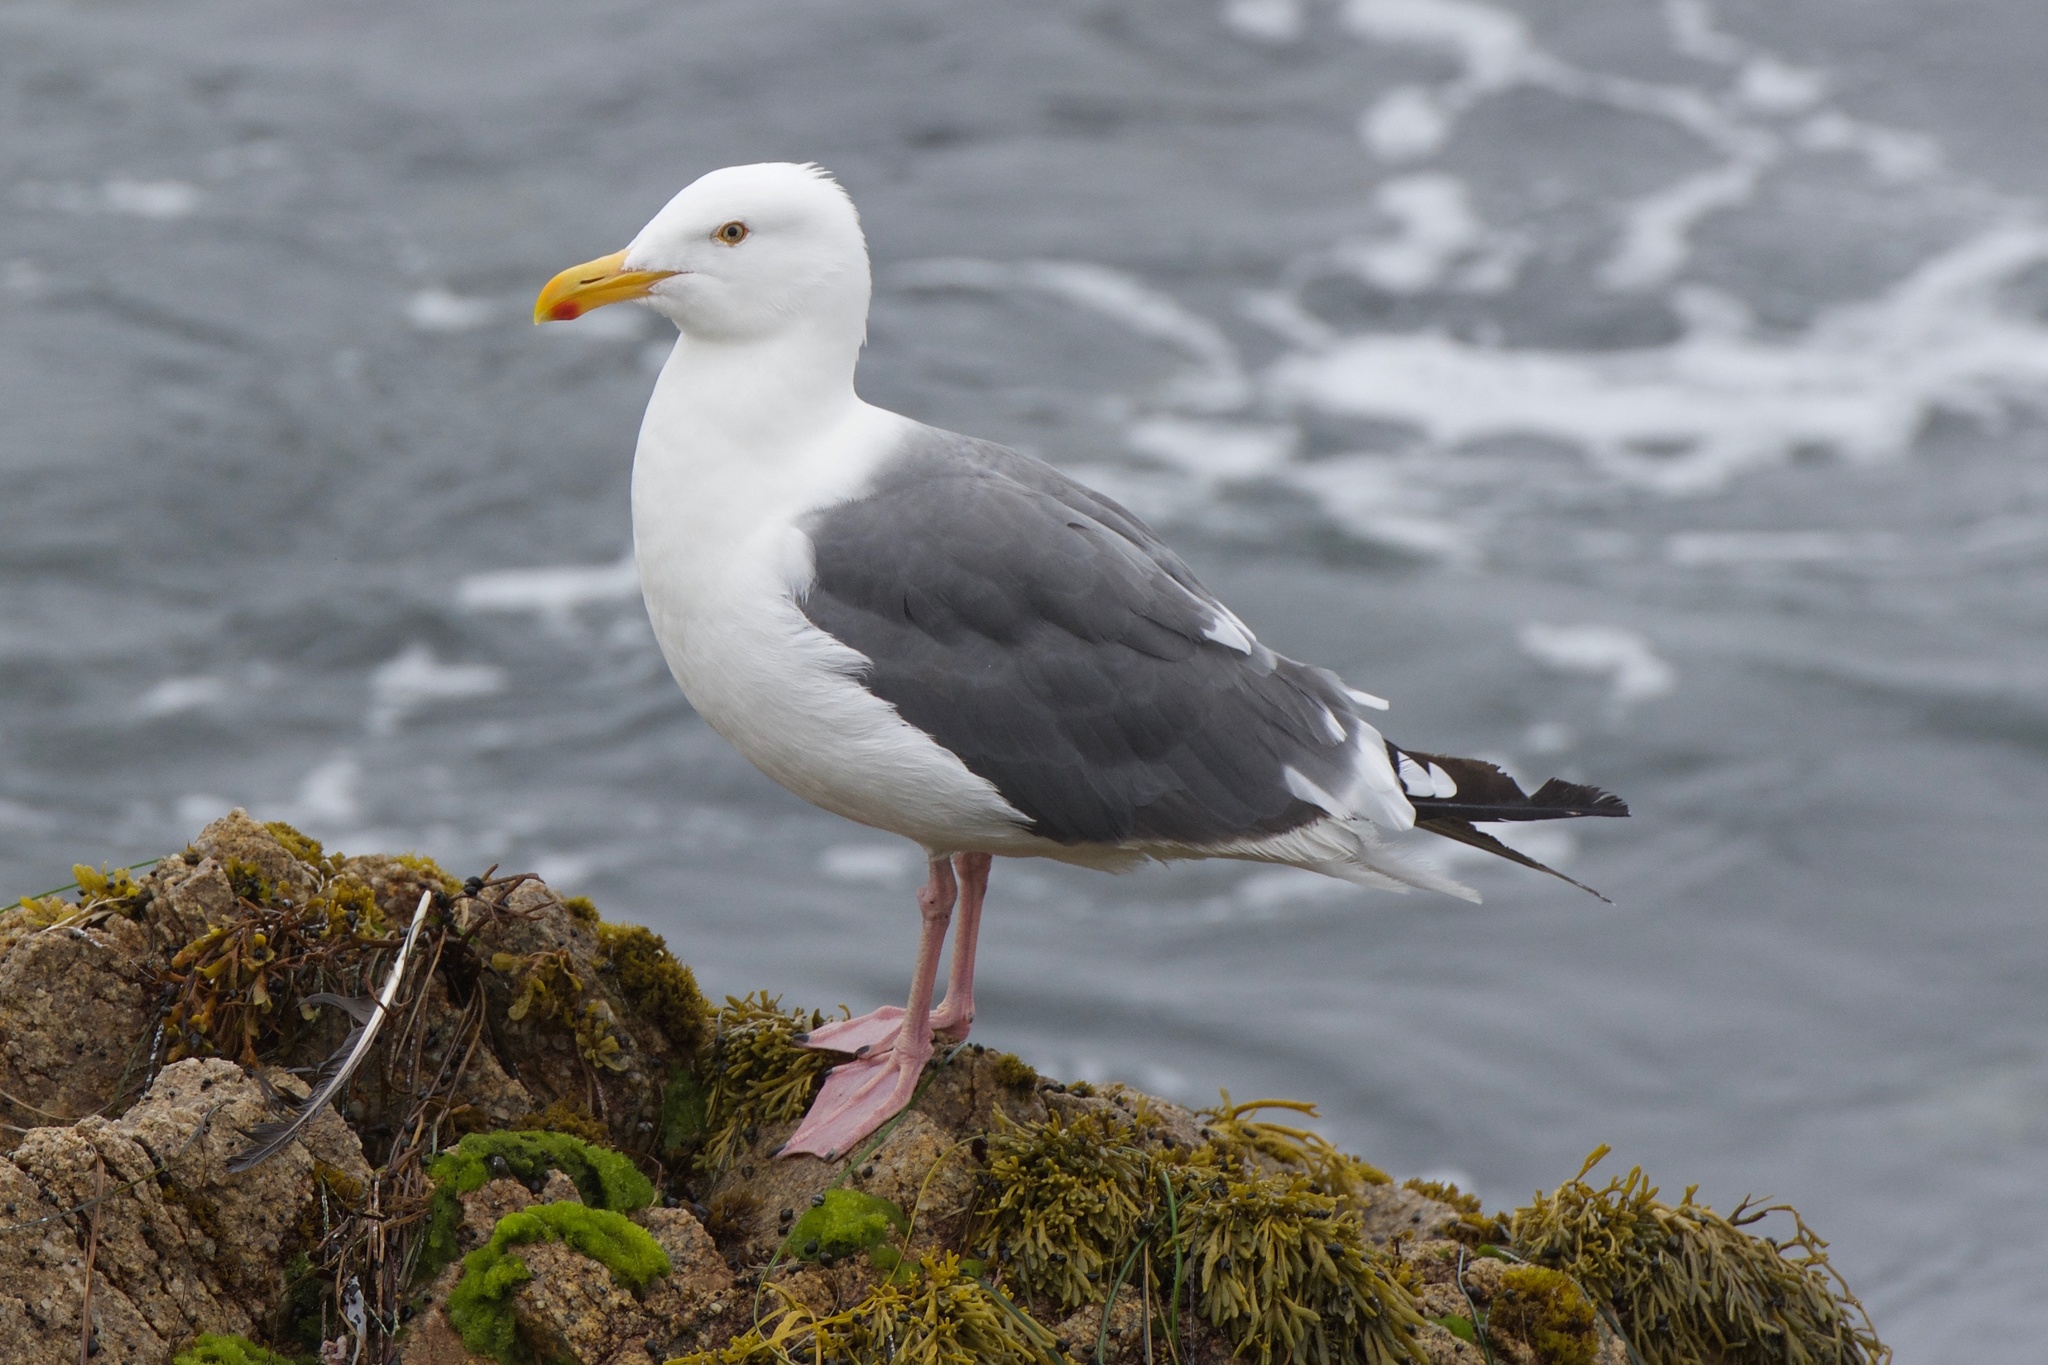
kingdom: Animalia
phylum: Chordata
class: Aves
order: Charadriiformes
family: Laridae
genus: Larus
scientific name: Larus occidentalis
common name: Western gull
